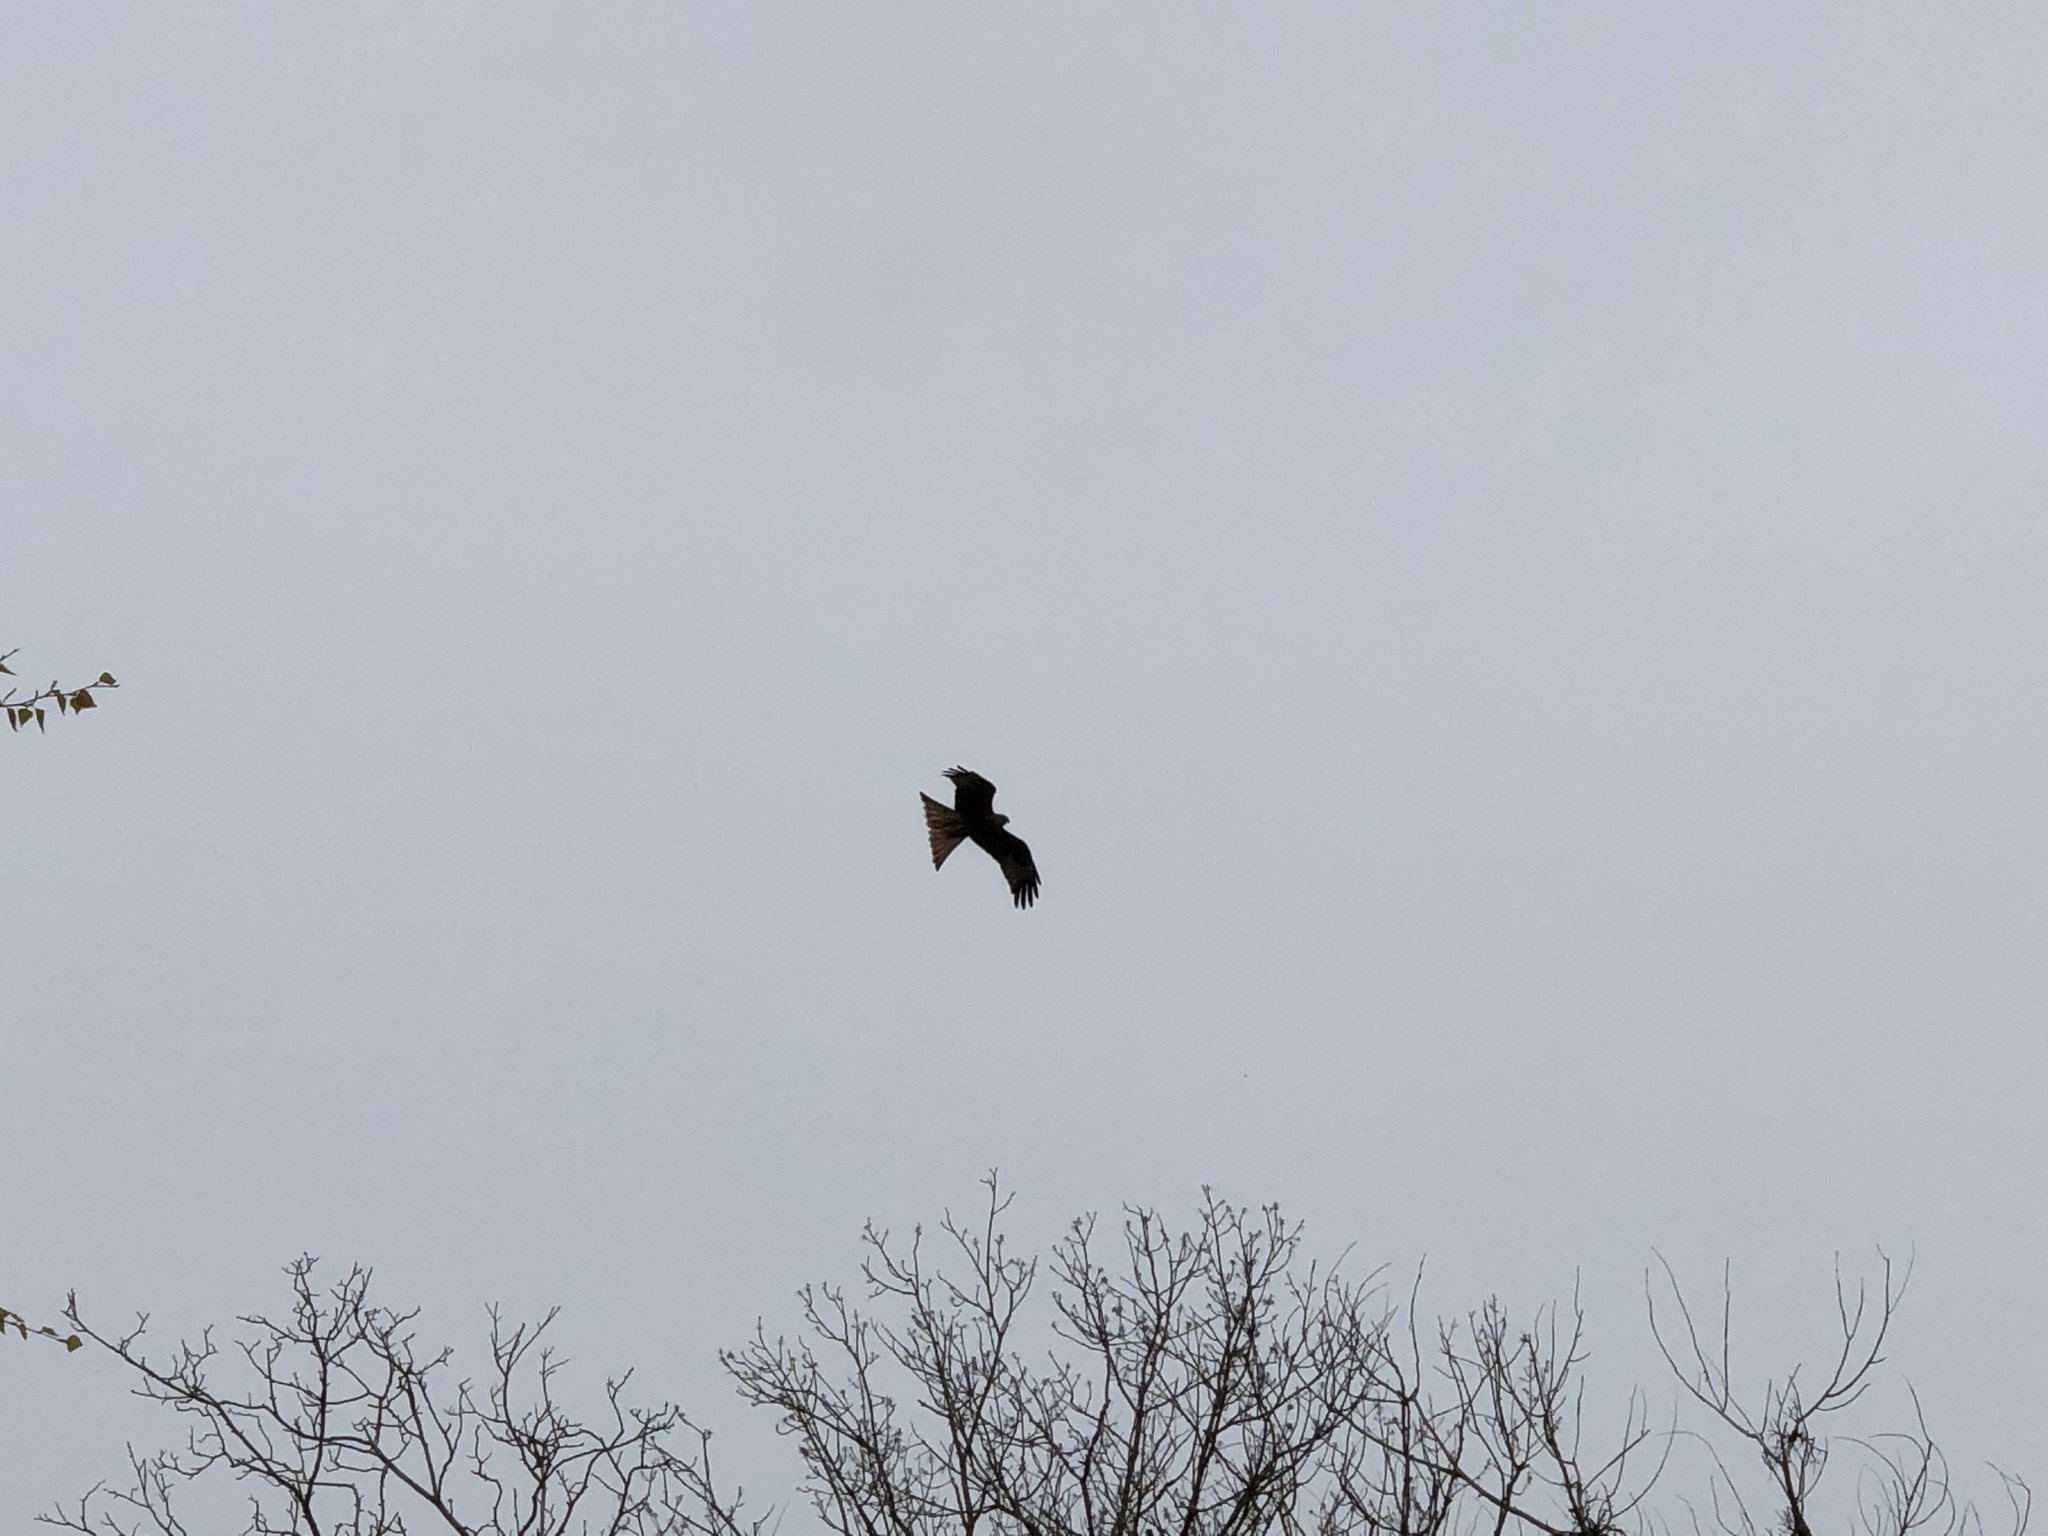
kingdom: Animalia
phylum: Chordata
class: Aves
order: Accipitriformes
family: Accipitridae
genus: Milvus
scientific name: Milvus migrans
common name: Black kite
